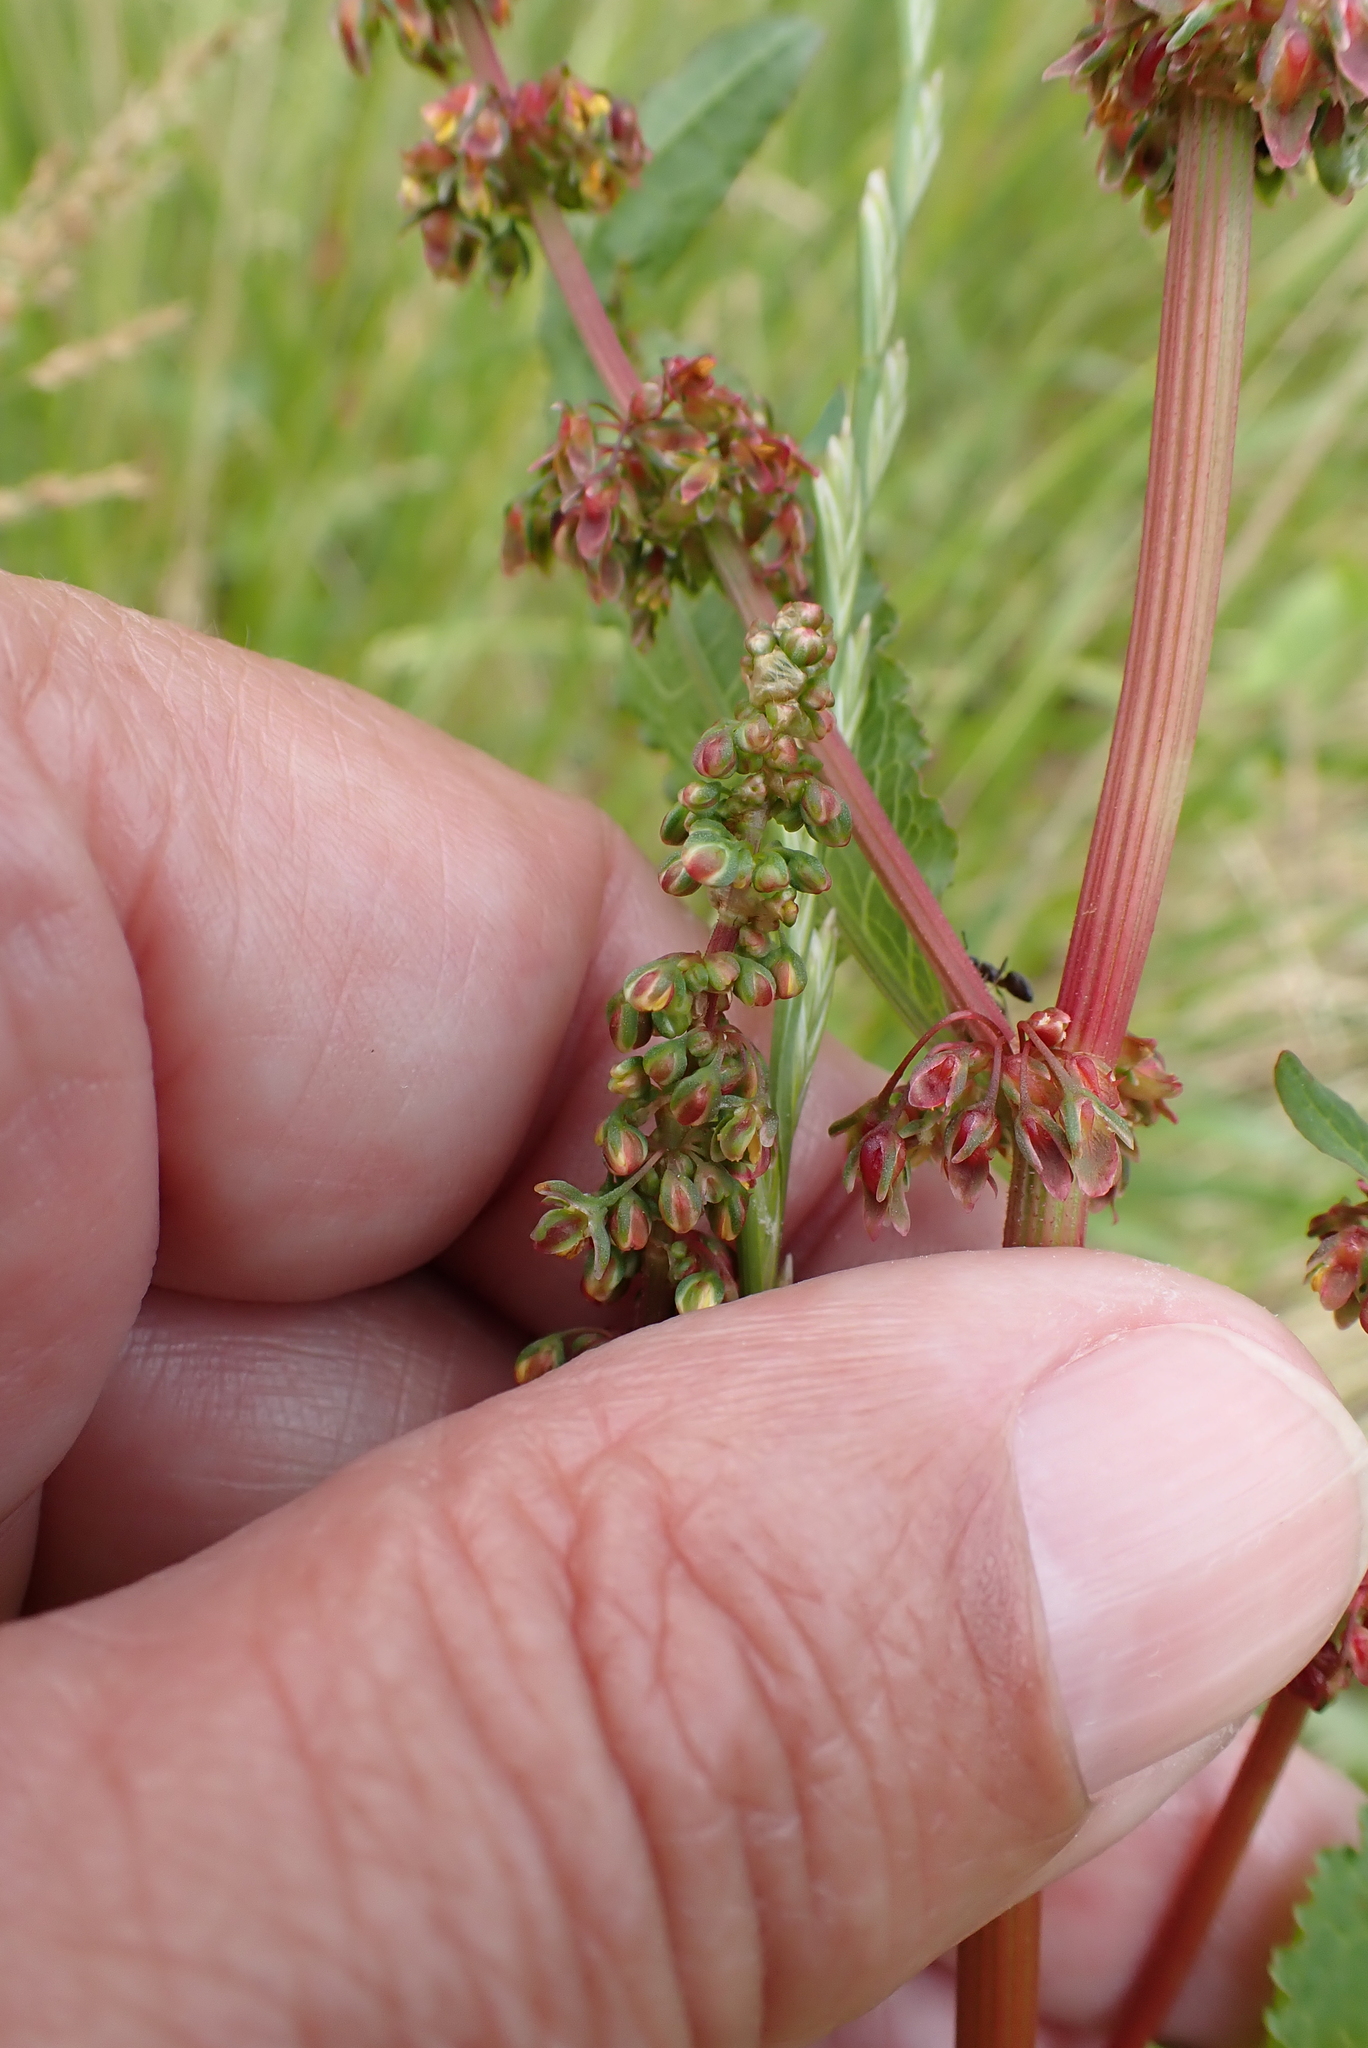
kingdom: Plantae
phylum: Tracheophyta
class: Magnoliopsida
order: Caryophyllales
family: Polygonaceae
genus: Rumex
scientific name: Rumex sanguineus
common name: Wood dock
